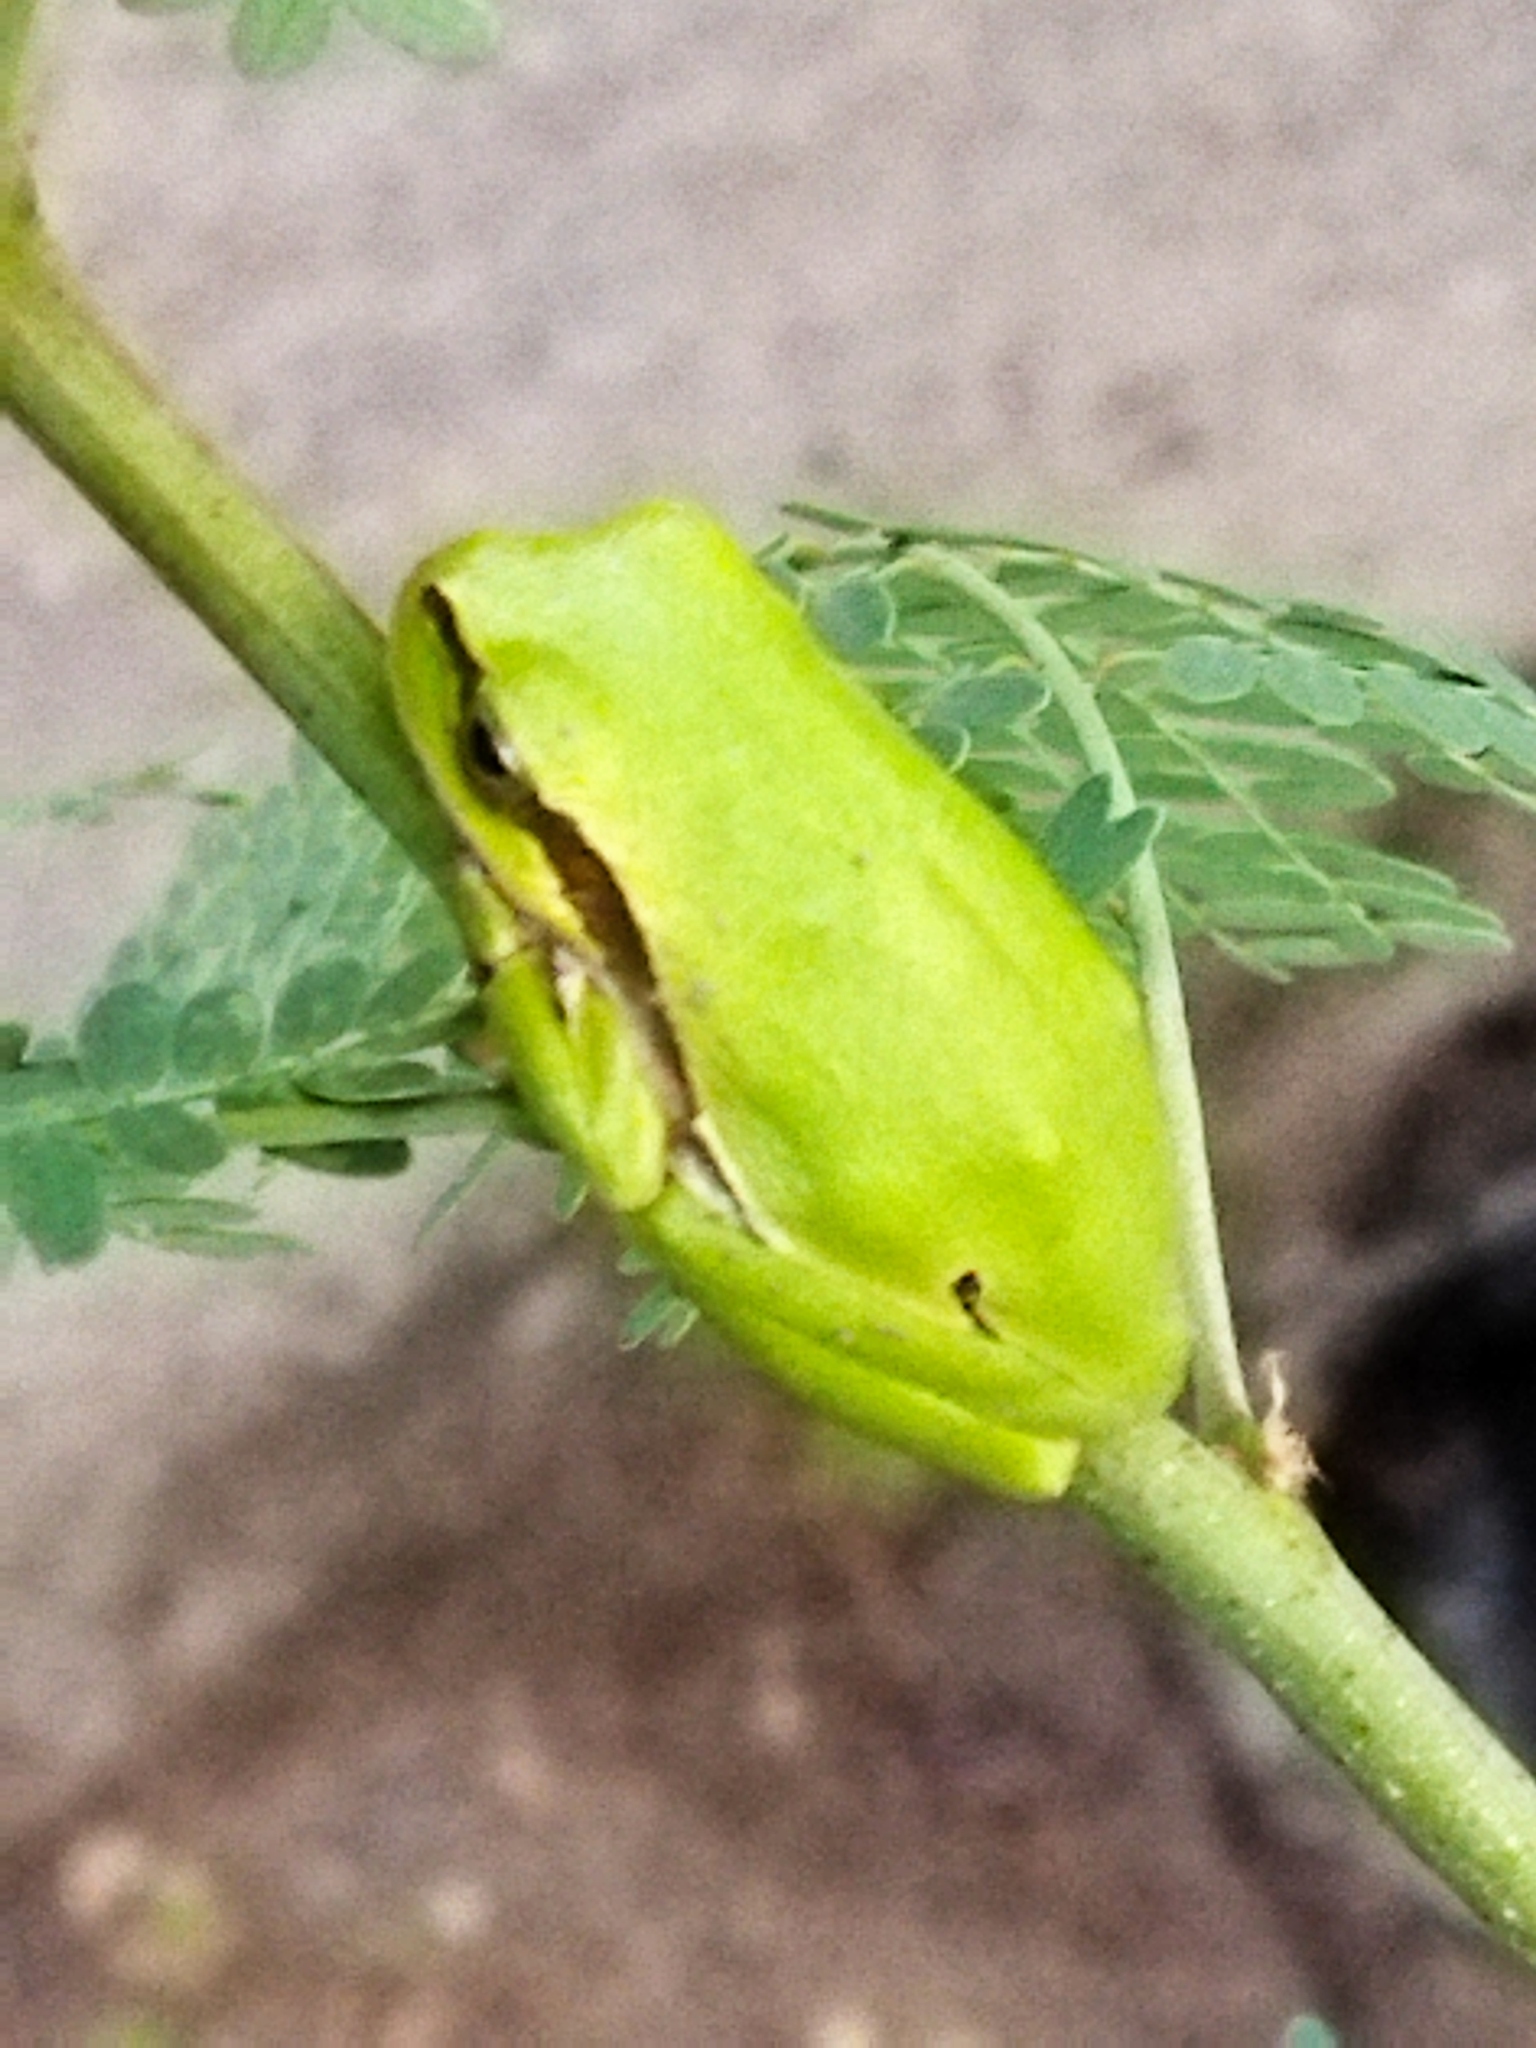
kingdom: Animalia
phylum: Chordata
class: Amphibia
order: Anura
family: Hylidae
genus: Hyla
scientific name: Hyla orientalis
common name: Caucasian treefrog
